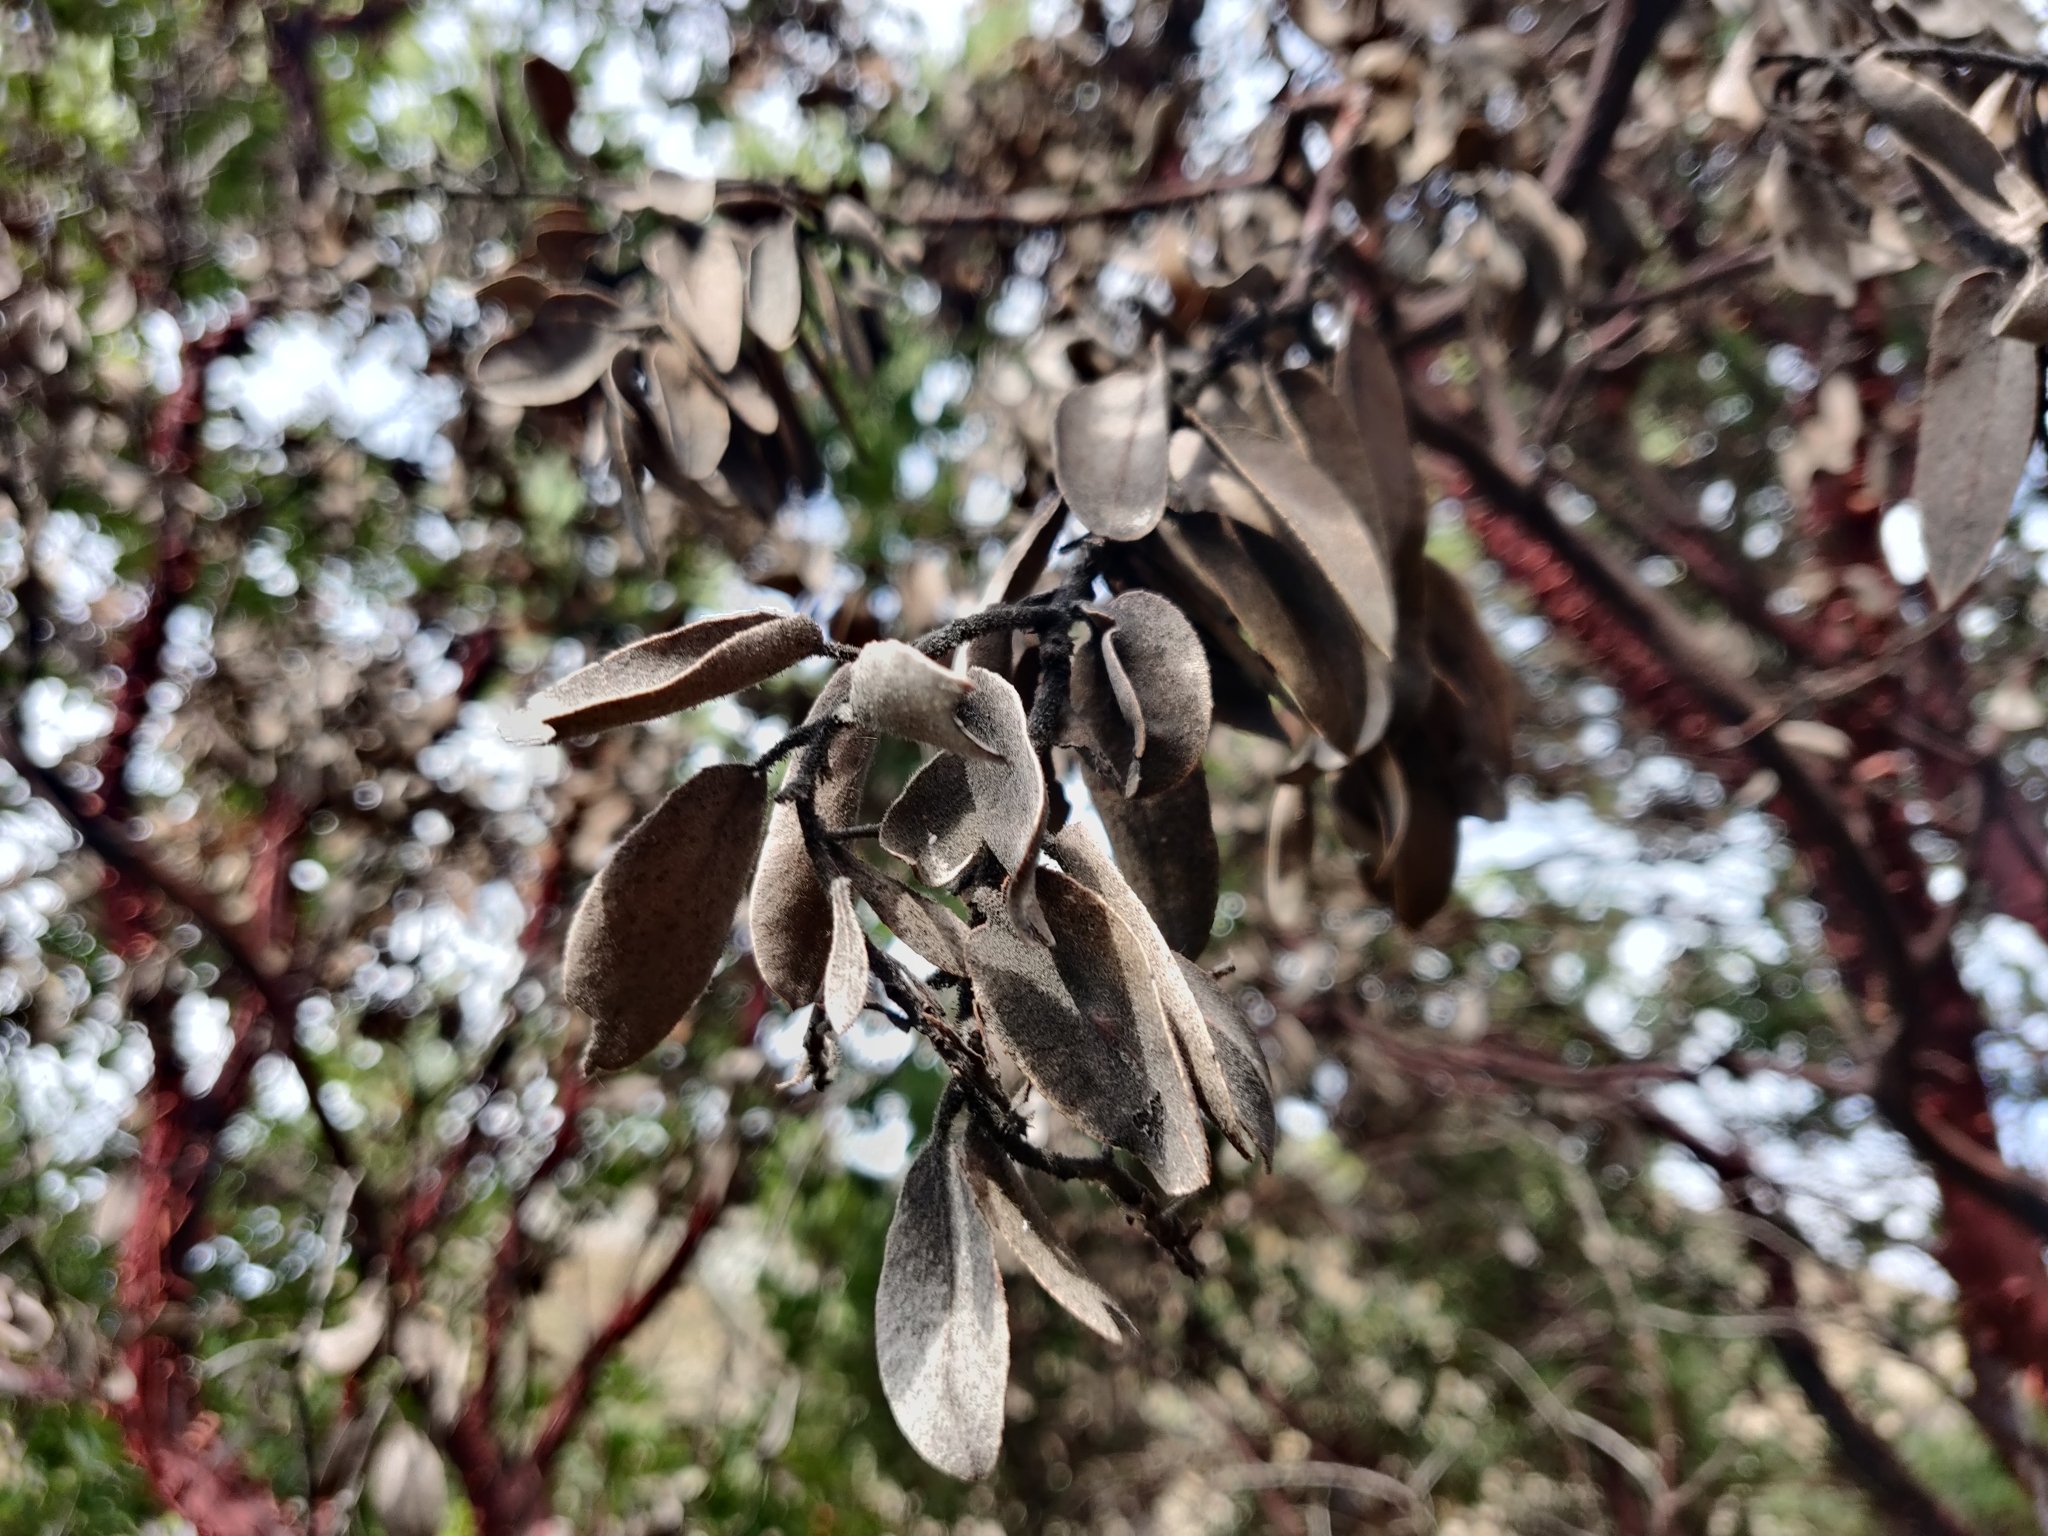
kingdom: Plantae
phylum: Tracheophyta
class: Magnoliopsida
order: Ericales
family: Ericaceae
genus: Arctostaphylos
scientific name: Arctostaphylos hooveri
